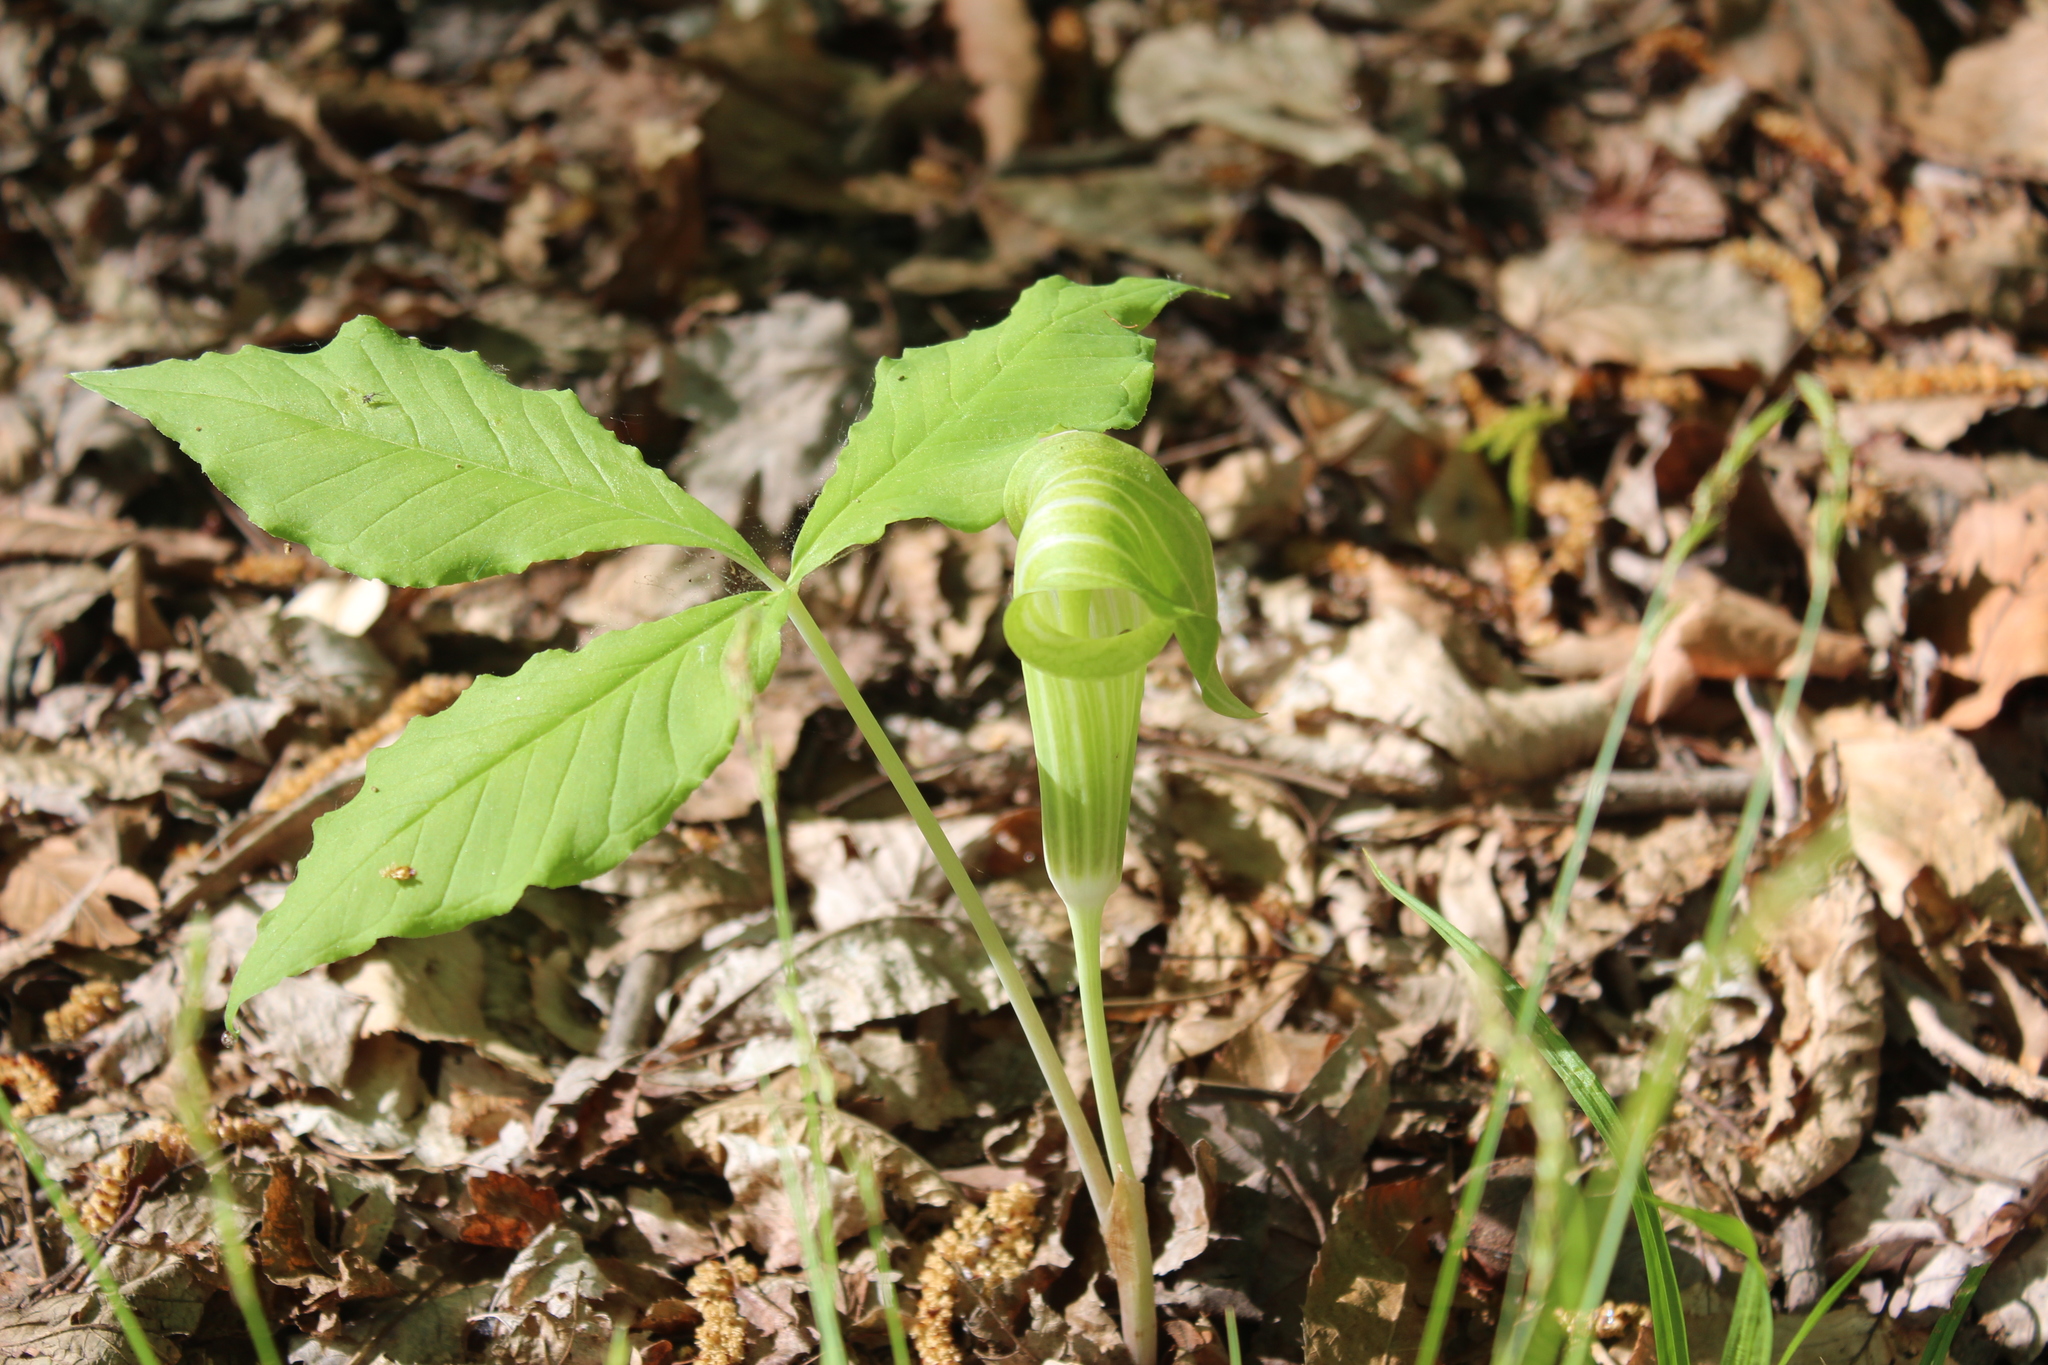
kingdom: Plantae
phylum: Tracheophyta
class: Liliopsida
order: Alismatales
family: Araceae
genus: Arisaema
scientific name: Arisaema triphyllum
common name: Jack-in-the-pulpit
